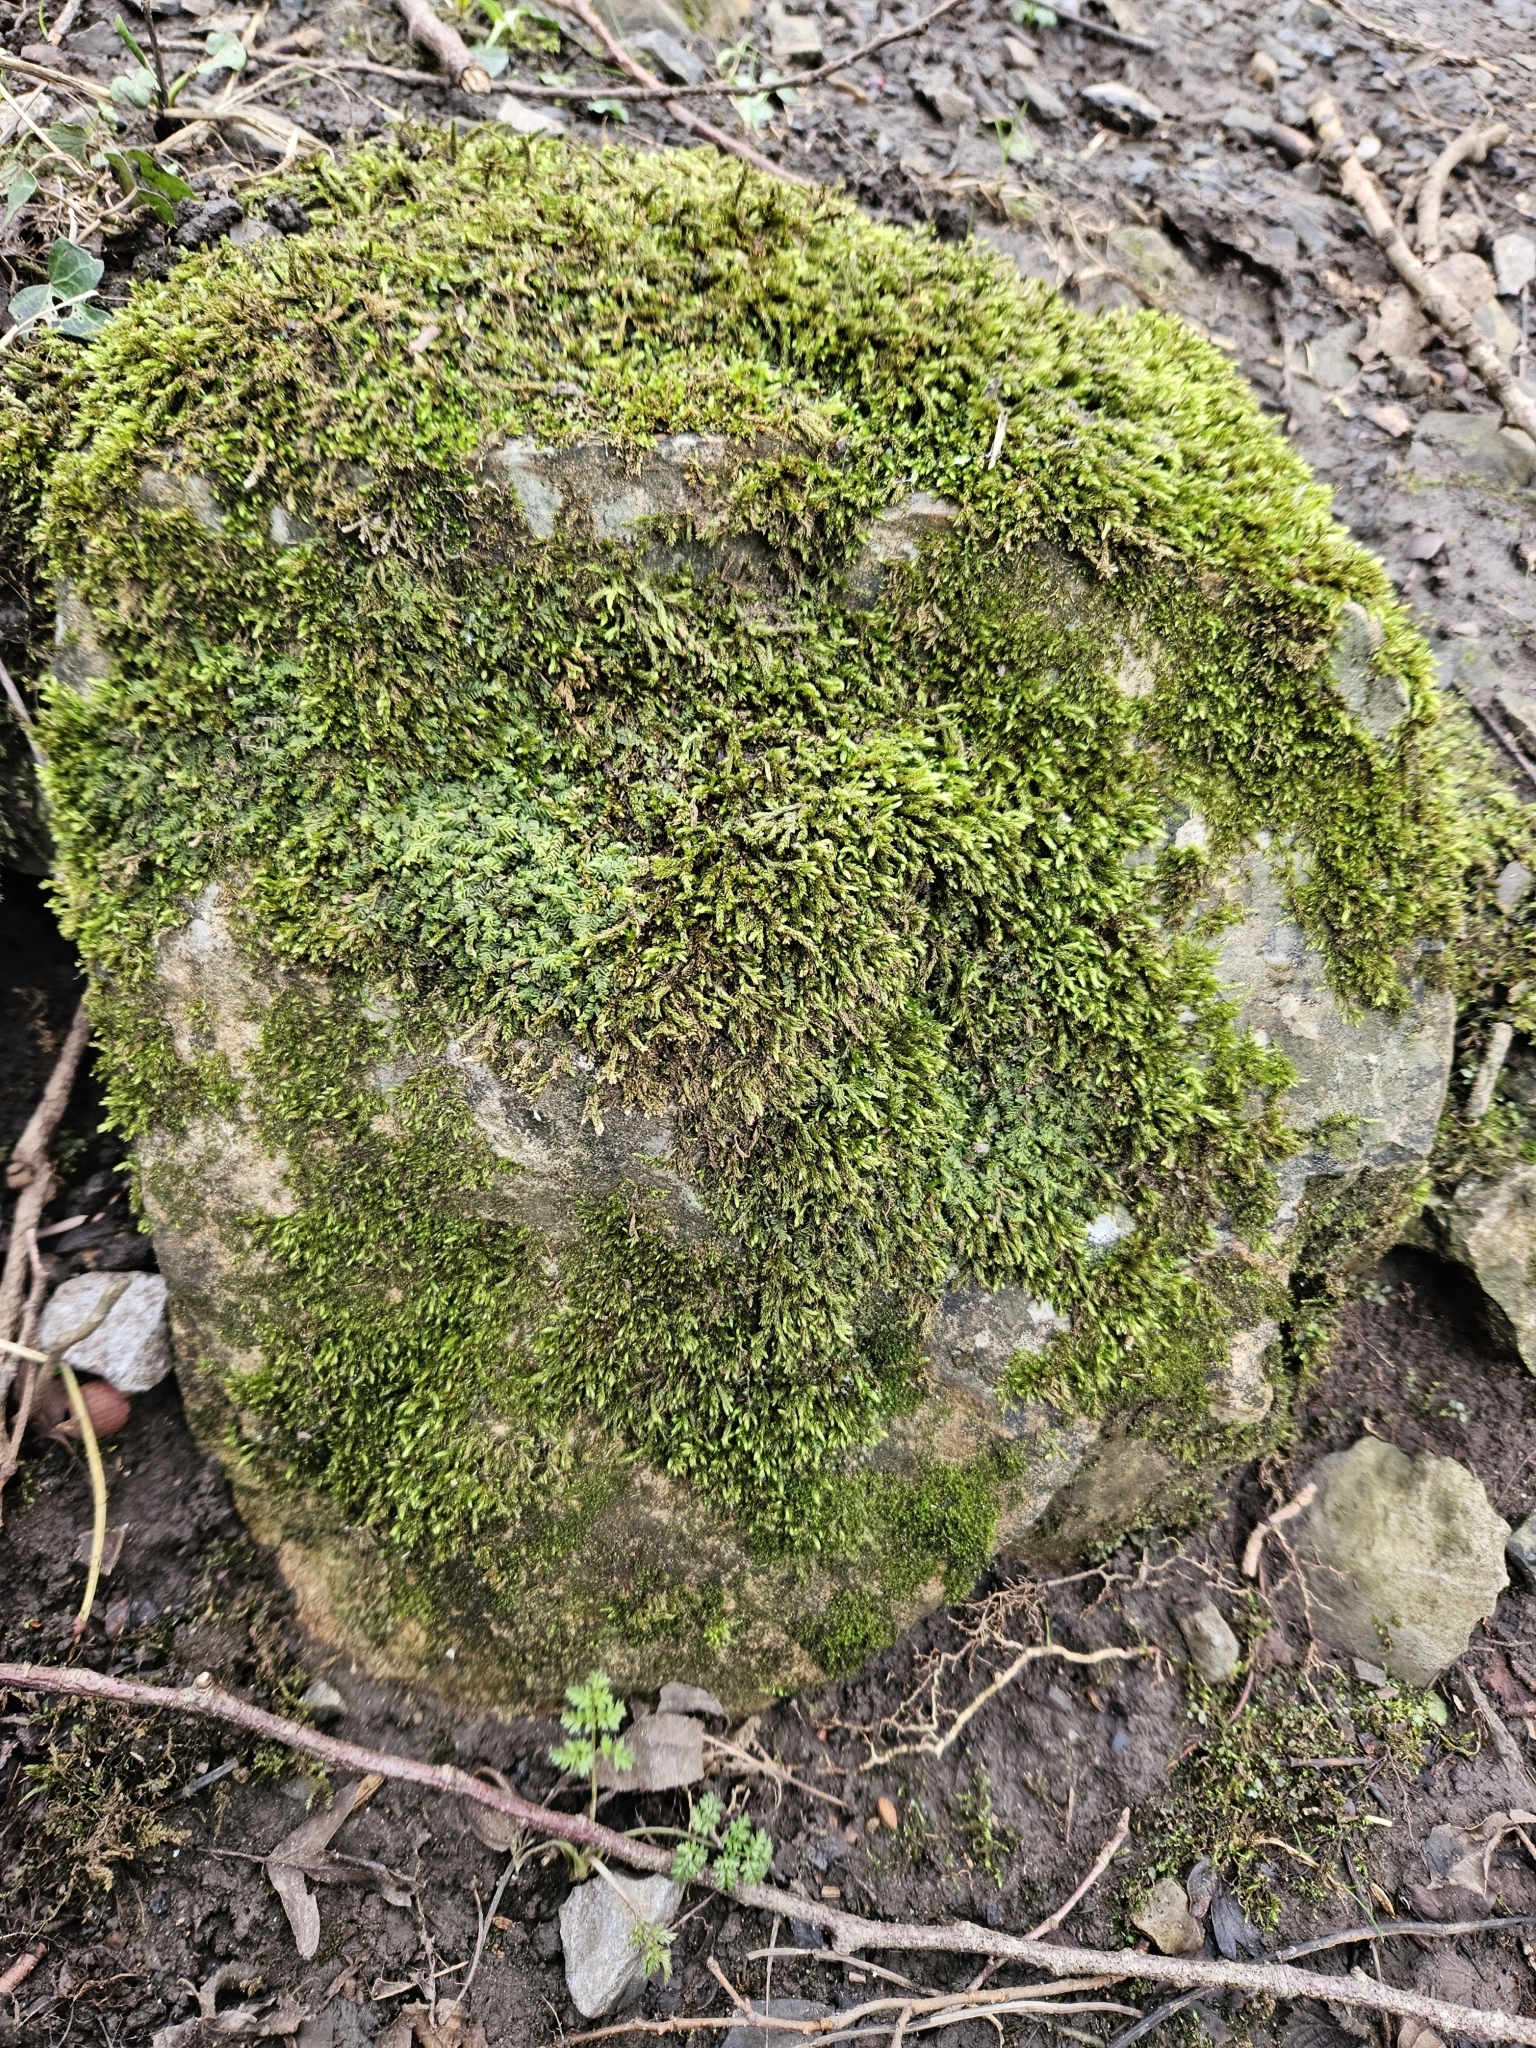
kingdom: Plantae
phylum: Marchantiophyta
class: Jungermanniopsida
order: Jungermanniales
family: Plagiochilaceae
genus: Plagiochila
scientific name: Plagiochila porelloides
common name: Lesser featherwort
